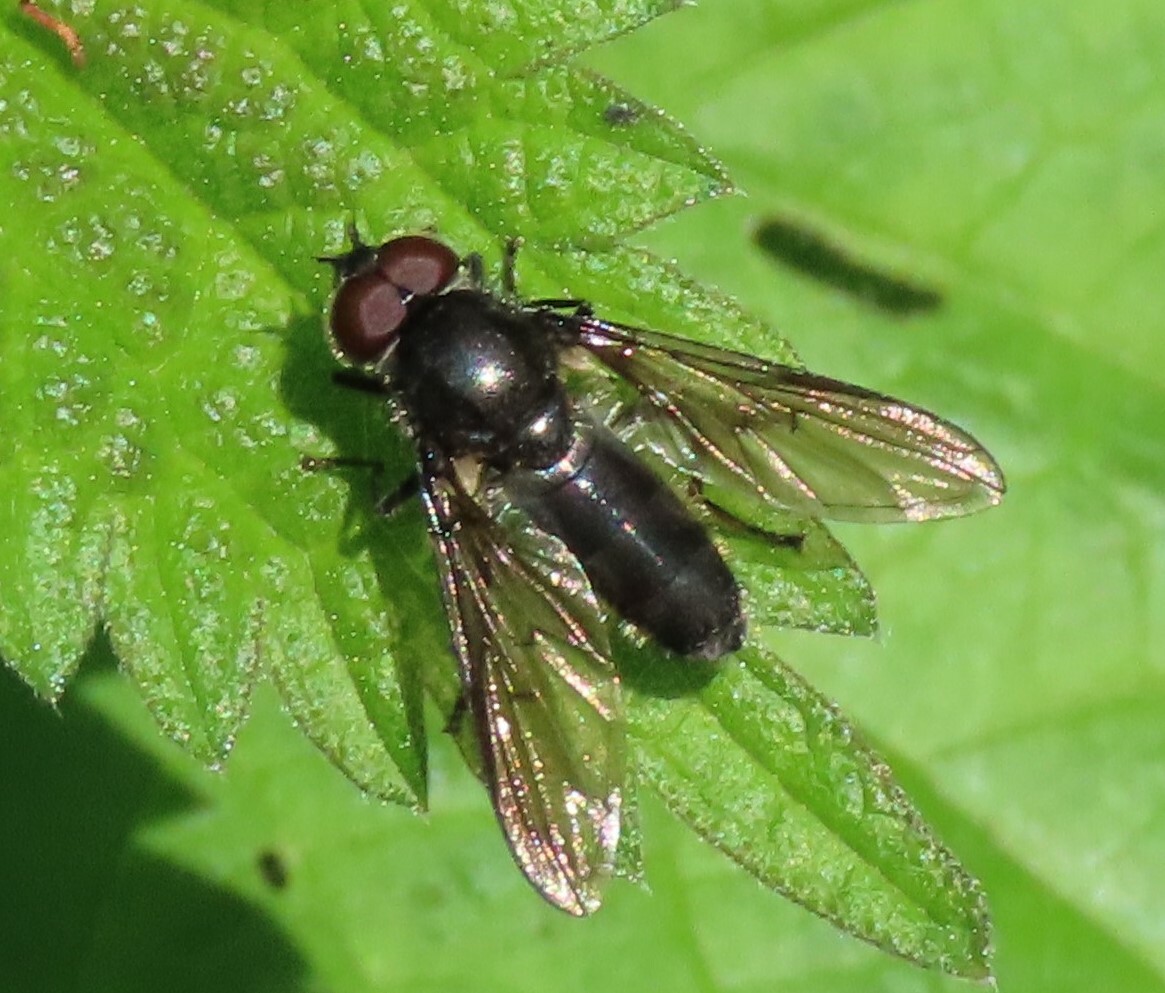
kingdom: Animalia
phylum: Arthropoda
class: Insecta
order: Diptera
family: Syrphidae
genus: Cheilosia
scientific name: Cheilosia variabilis
